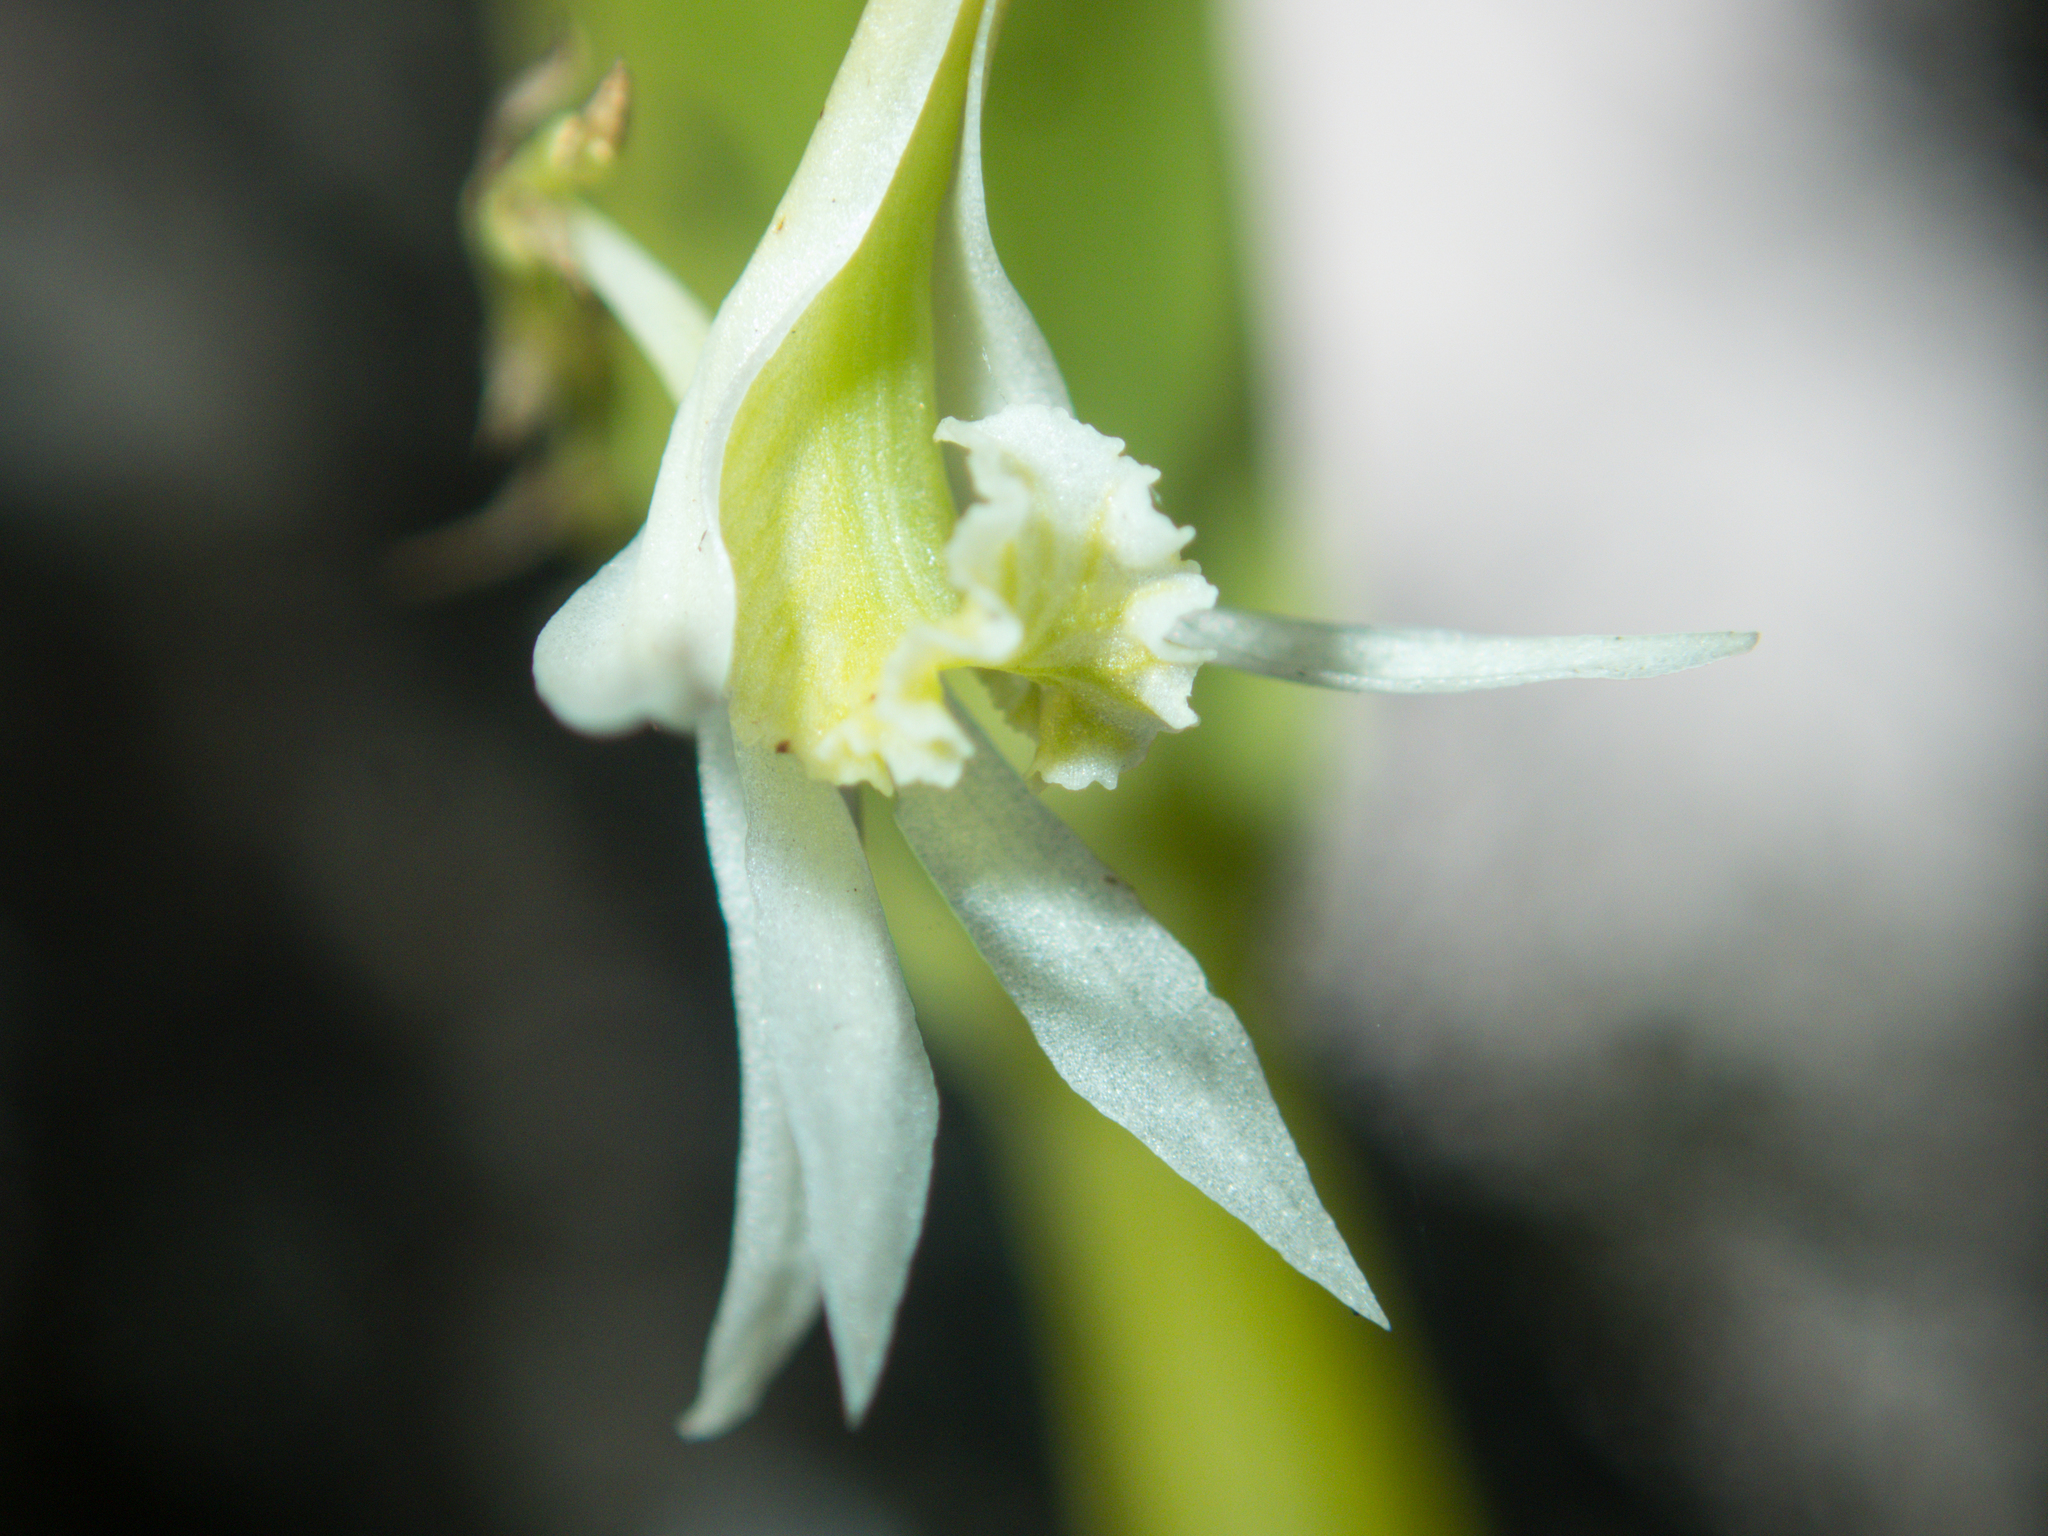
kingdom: Plantae
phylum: Tracheophyta
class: Liliopsida
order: Asparagales
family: Orchidaceae
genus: Dendrobium
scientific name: Dendrobium kratense
